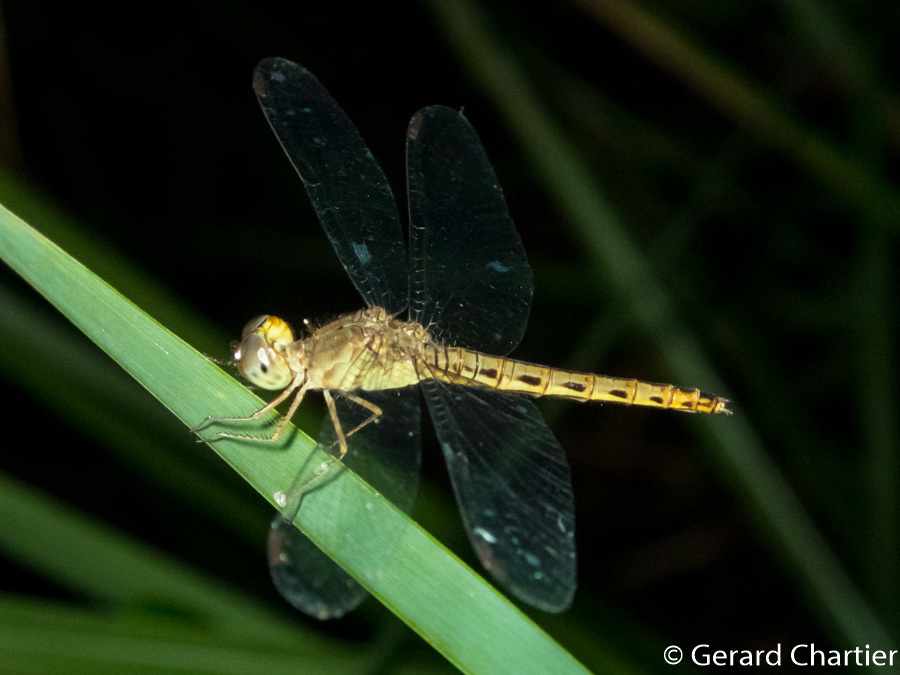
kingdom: Animalia
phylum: Arthropoda
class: Insecta
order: Odonata
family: Libellulidae
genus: Neurothemis
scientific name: Neurothemis fluctuans
